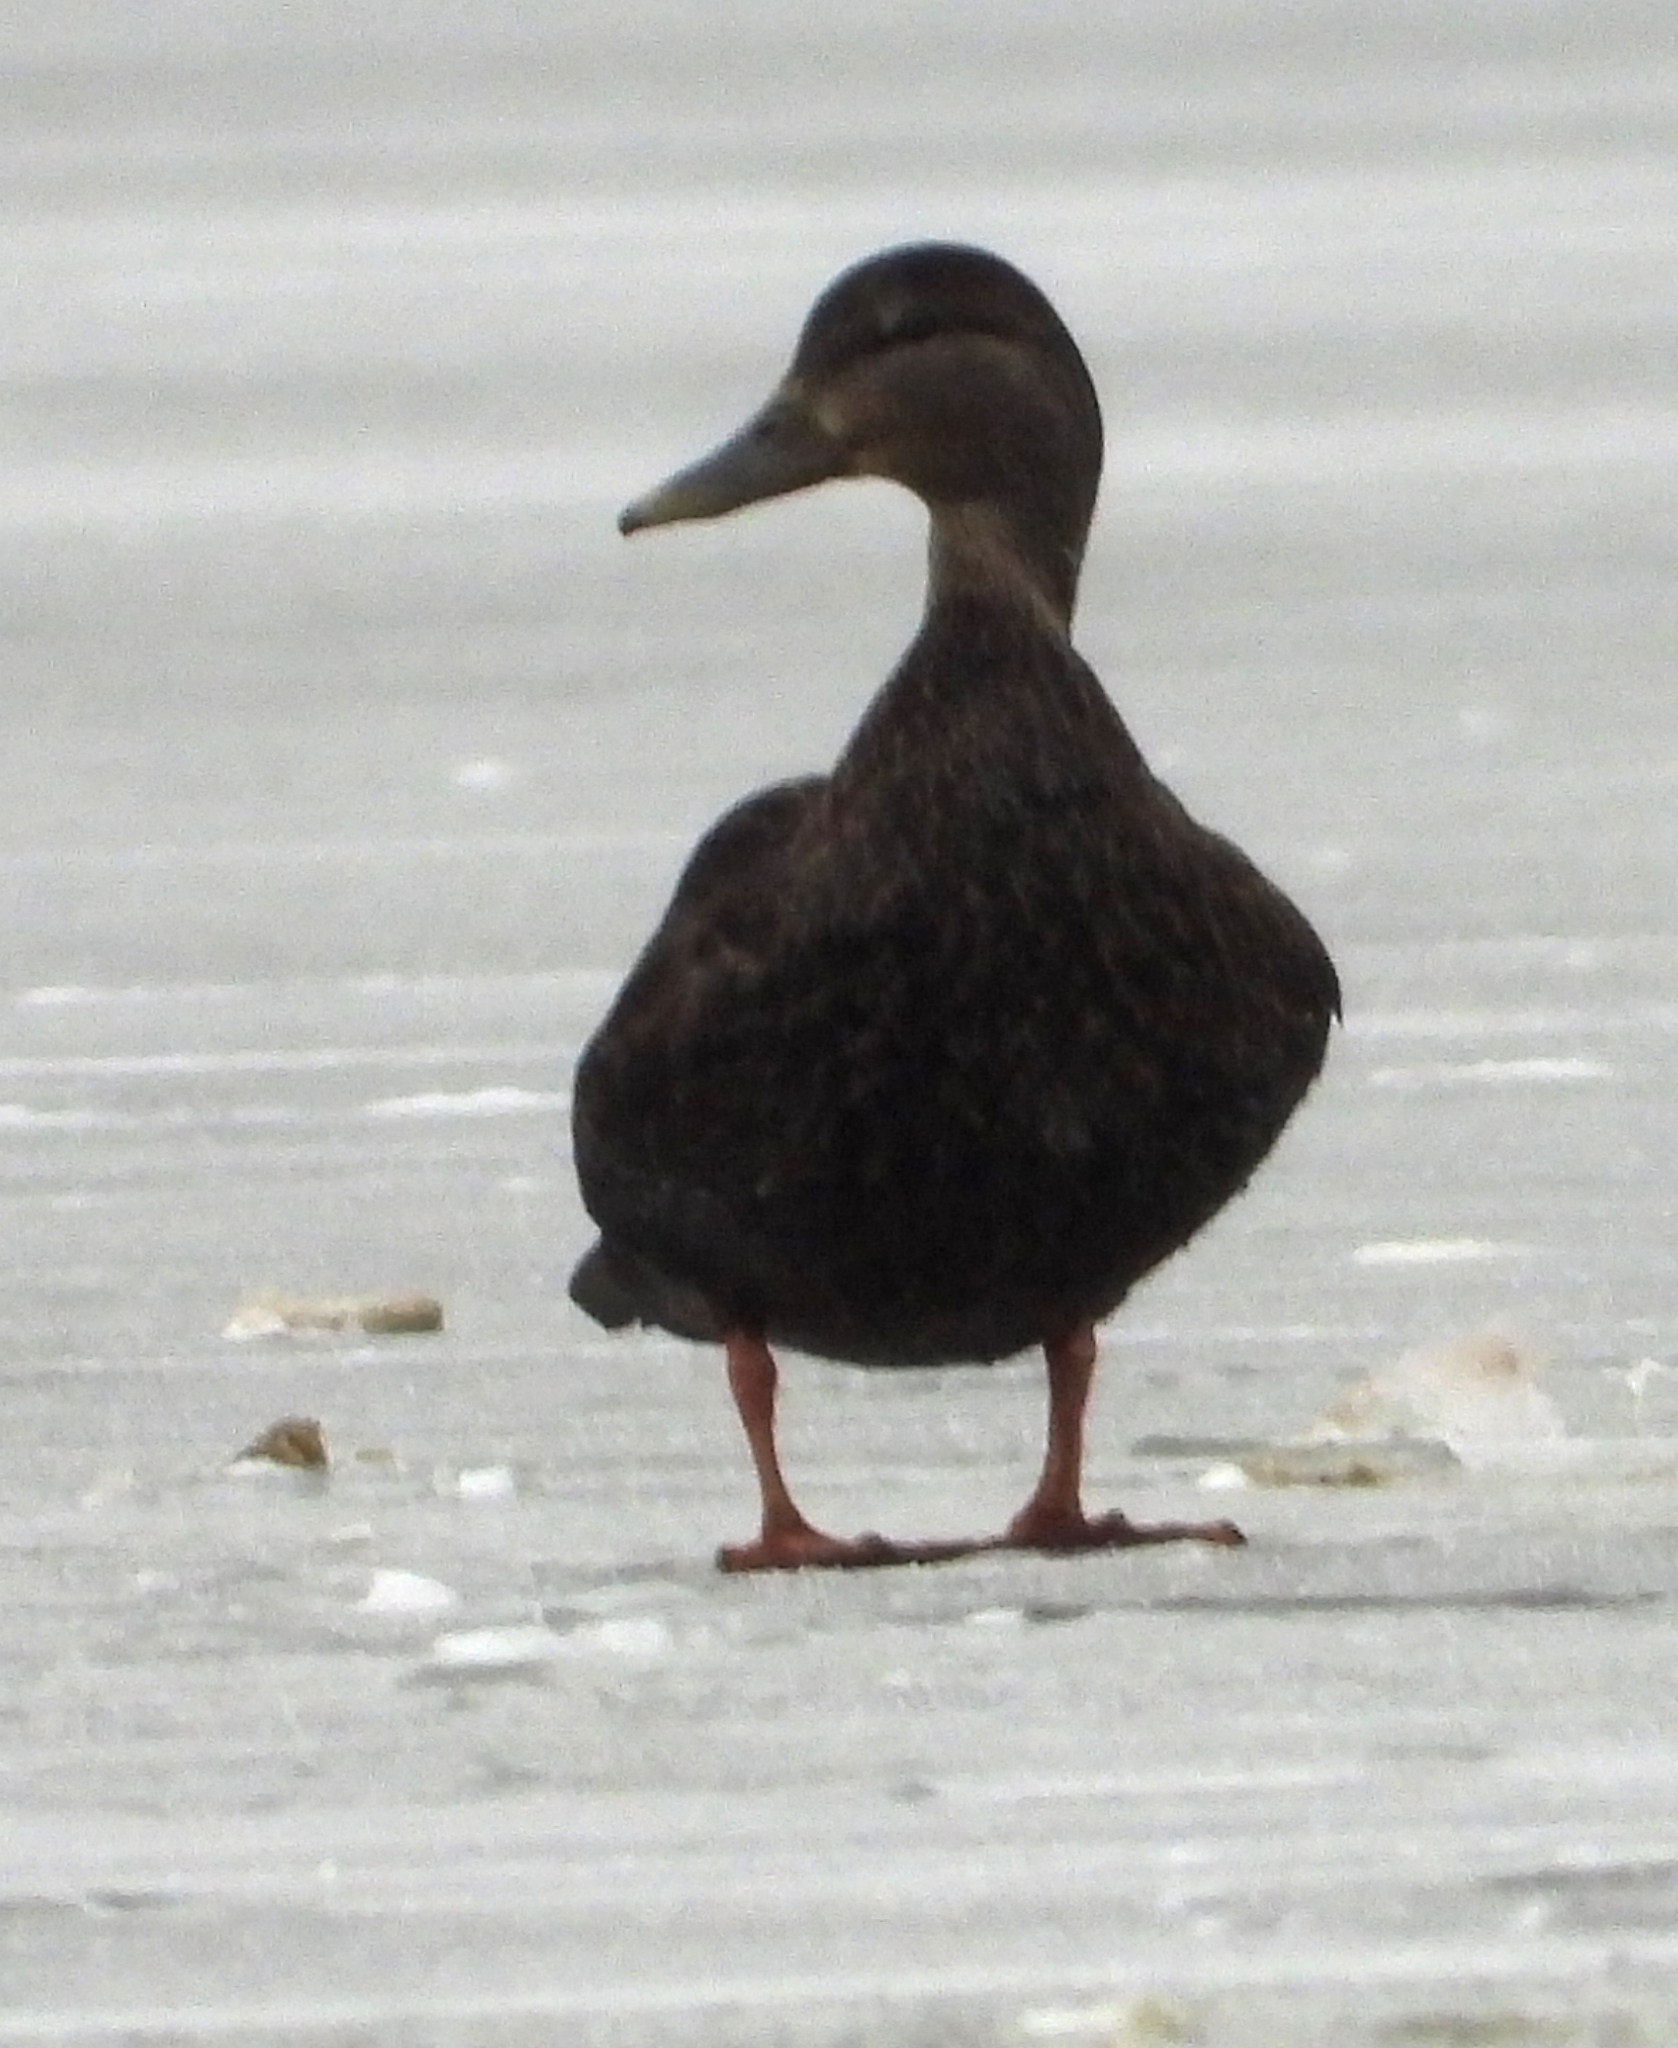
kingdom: Animalia
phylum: Chordata
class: Aves
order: Anseriformes
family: Anatidae
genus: Anas
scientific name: Anas rubripes
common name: American black duck
